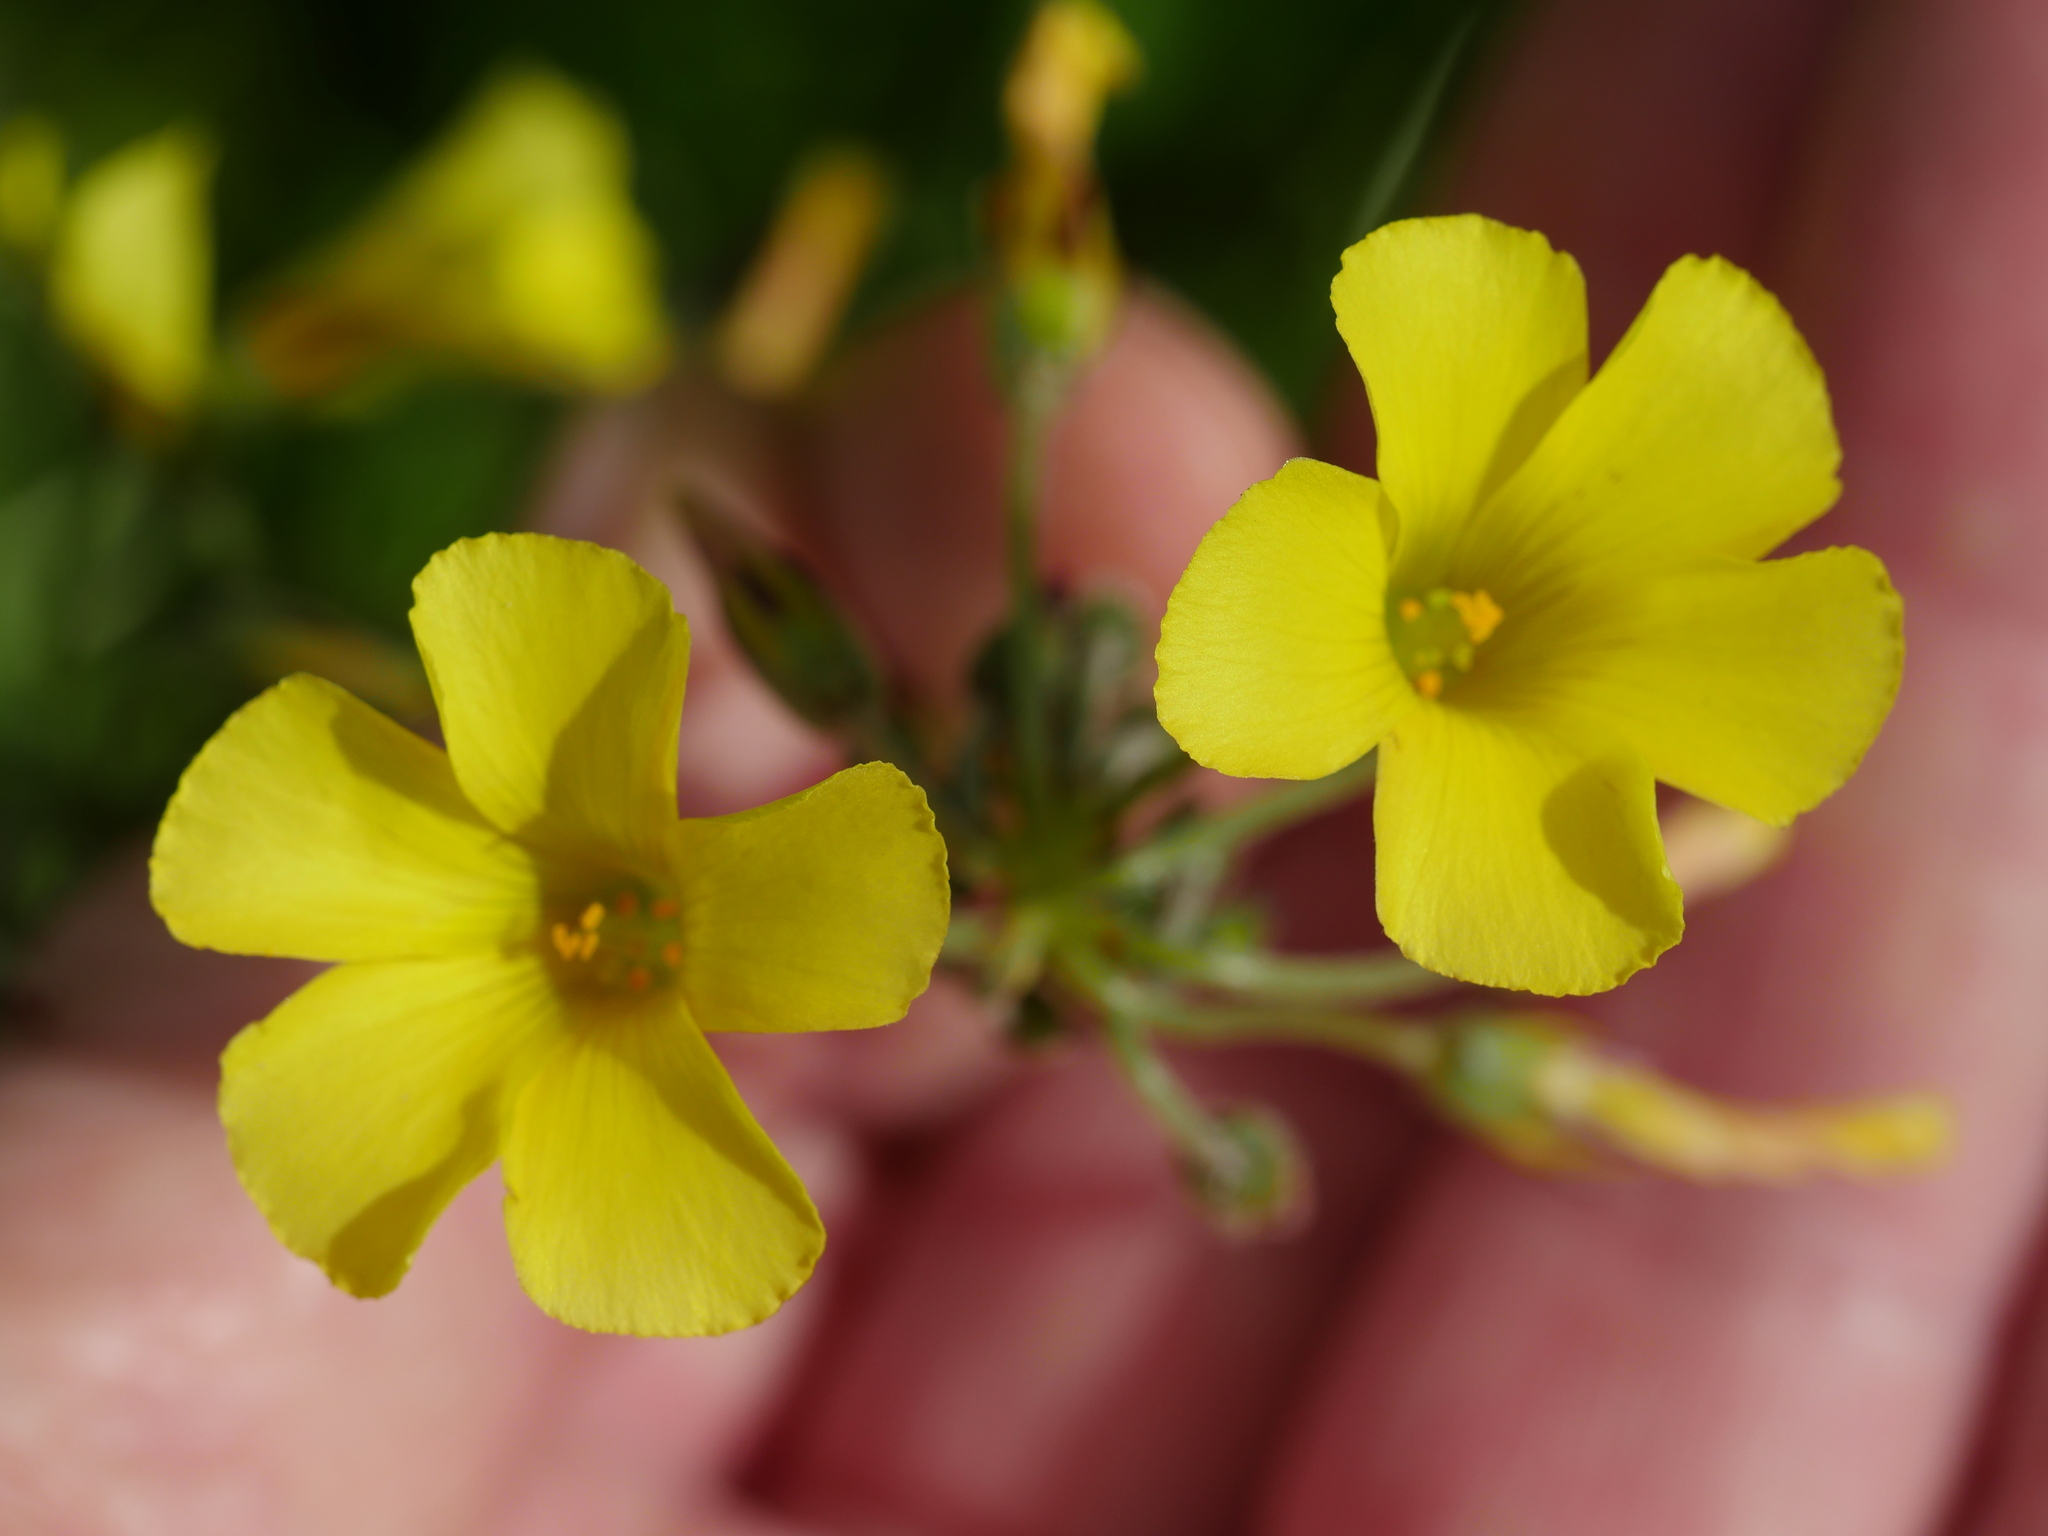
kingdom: Plantae
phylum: Tracheophyta
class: Magnoliopsida
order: Oxalidales
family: Oxalidaceae
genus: Oxalis
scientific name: Oxalis pes-caprae
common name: Bermuda-buttercup
